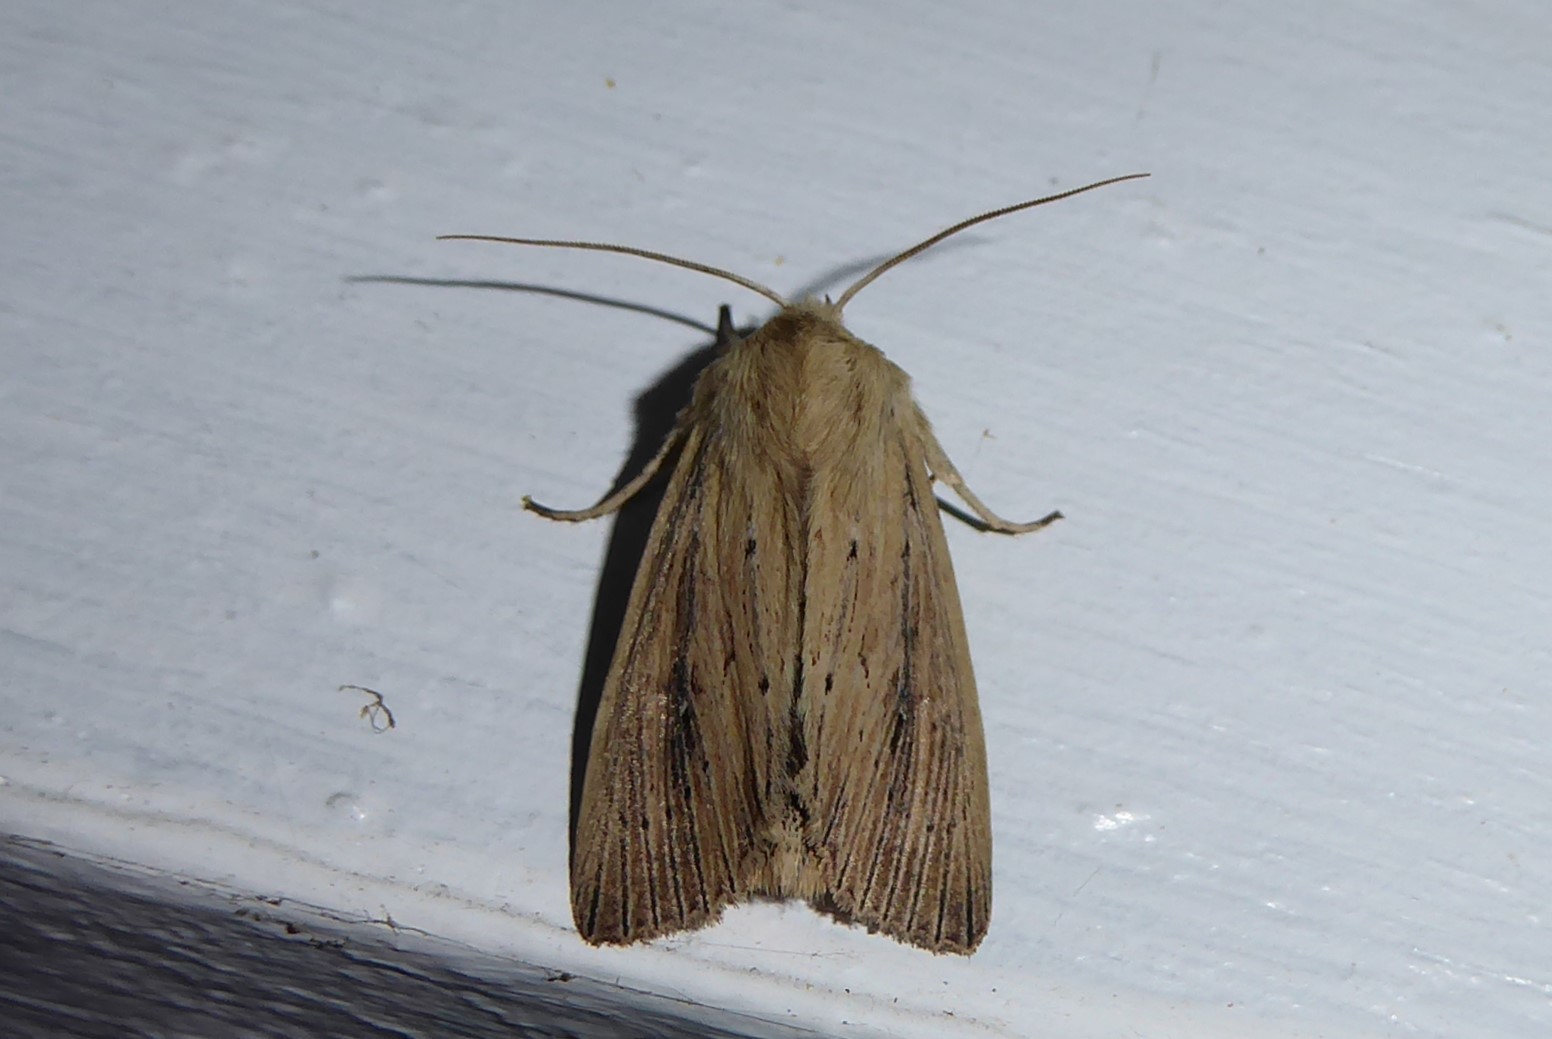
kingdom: Animalia
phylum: Arthropoda
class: Insecta
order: Lepidoptera
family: Noctuidae
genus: Ichneutica
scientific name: Ichneutica arotis
